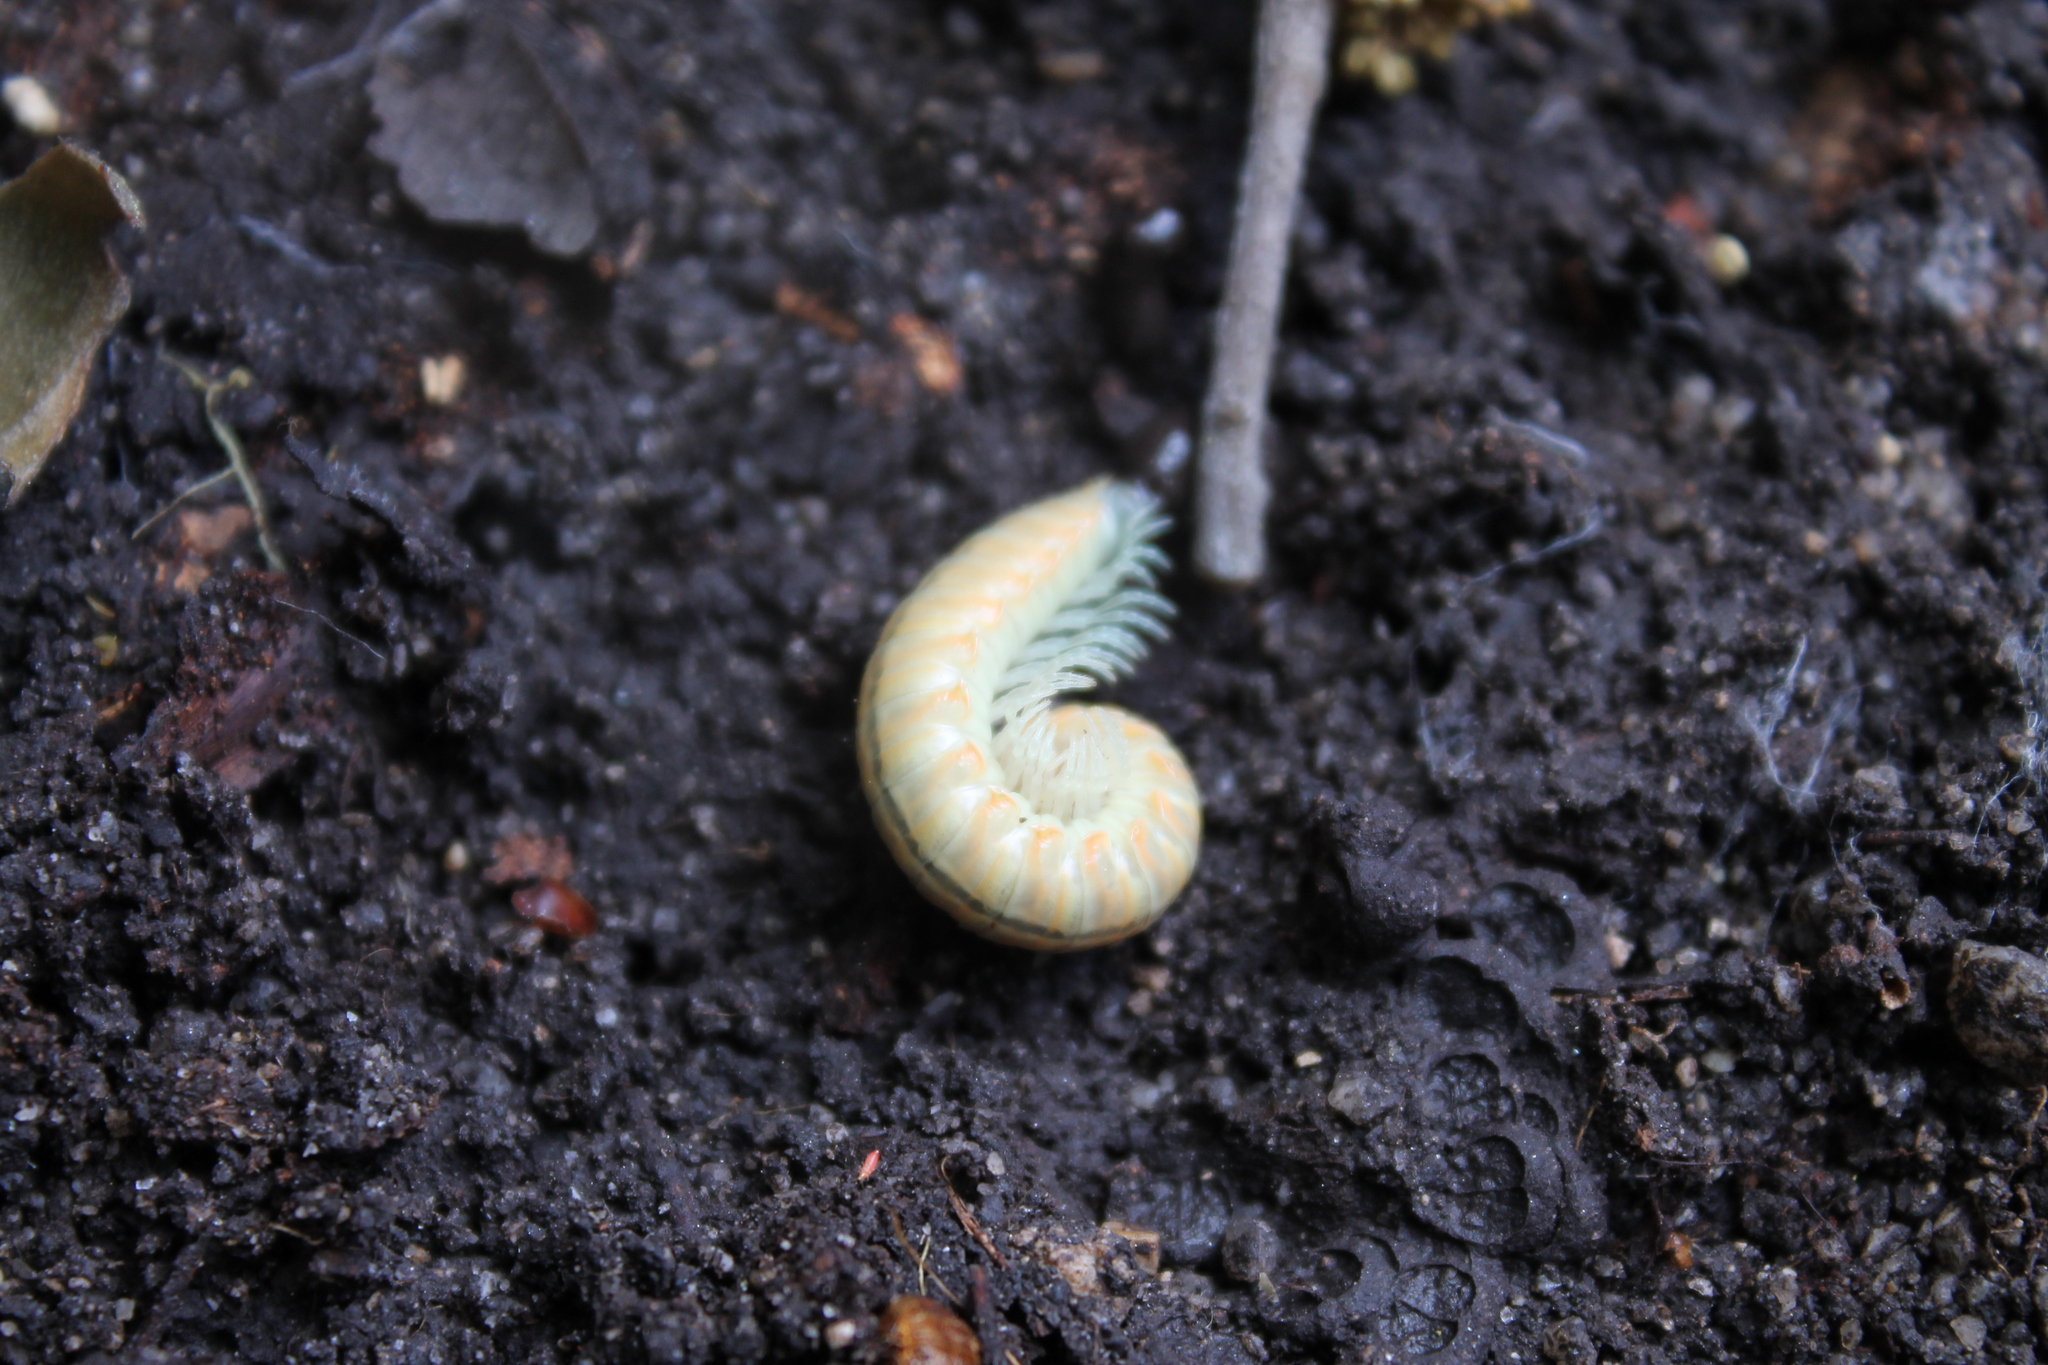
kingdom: Animalia
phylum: Arthropoda
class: Diplopoda
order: Polydesmida
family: Xystodesmidae
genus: Xystocheir
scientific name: Xystocheir dissecta
